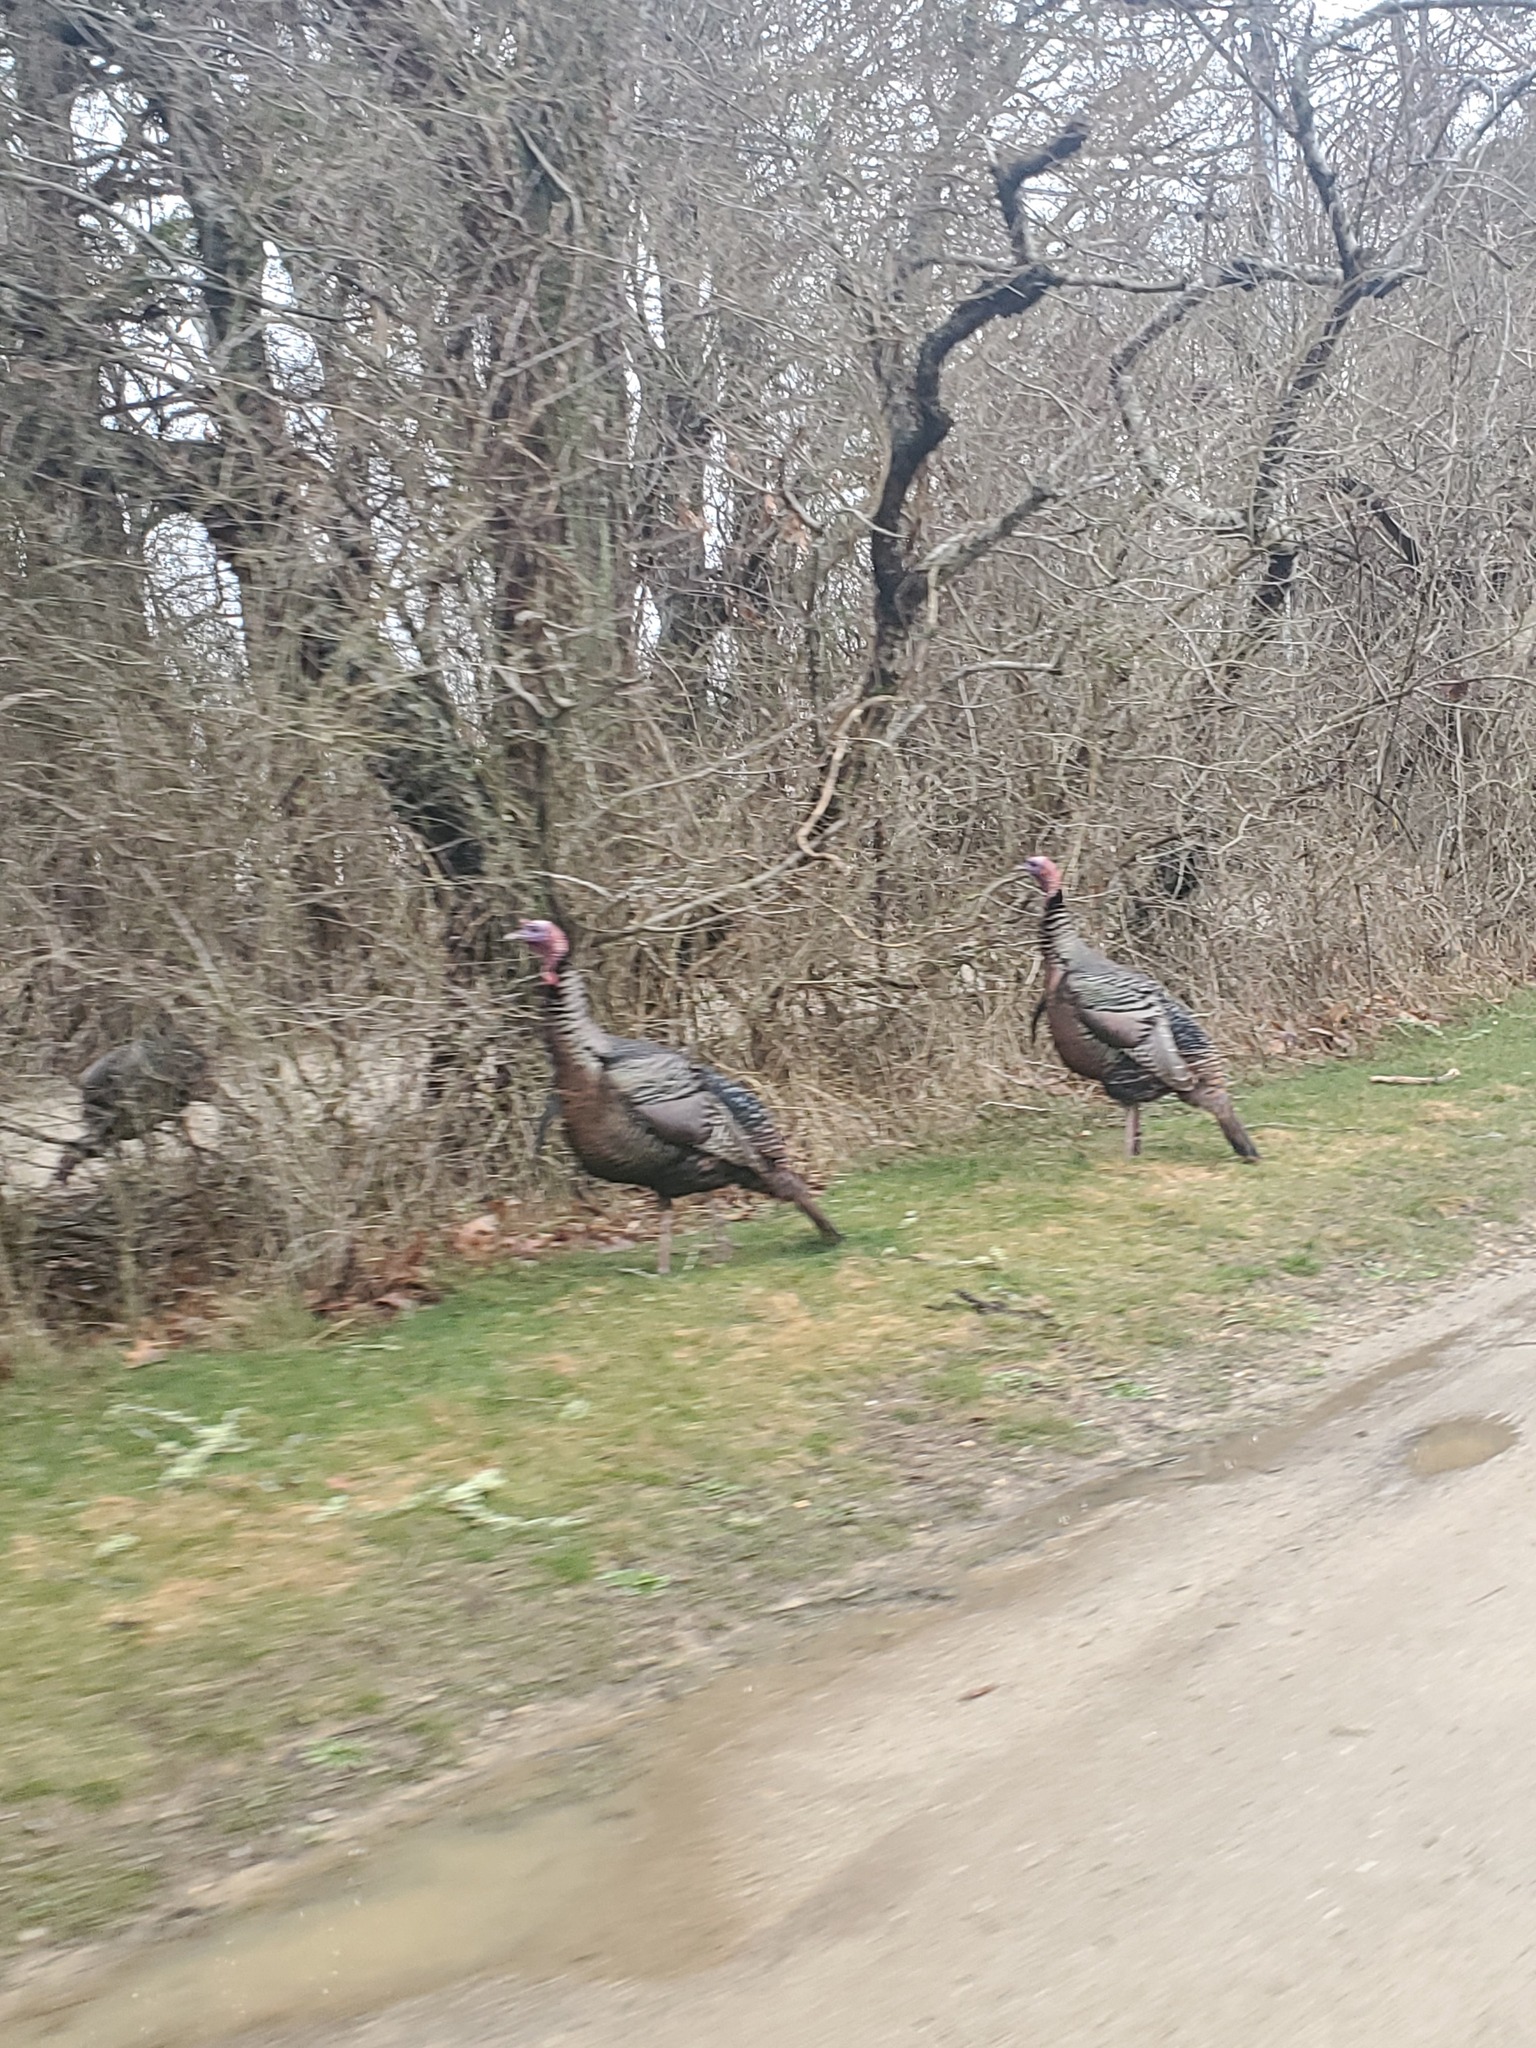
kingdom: Animalia
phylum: Chordata
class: Aves
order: Galliformes
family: Phasianidae
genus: Meleagris
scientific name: Meleagris gallopavo
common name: Wild turkey
